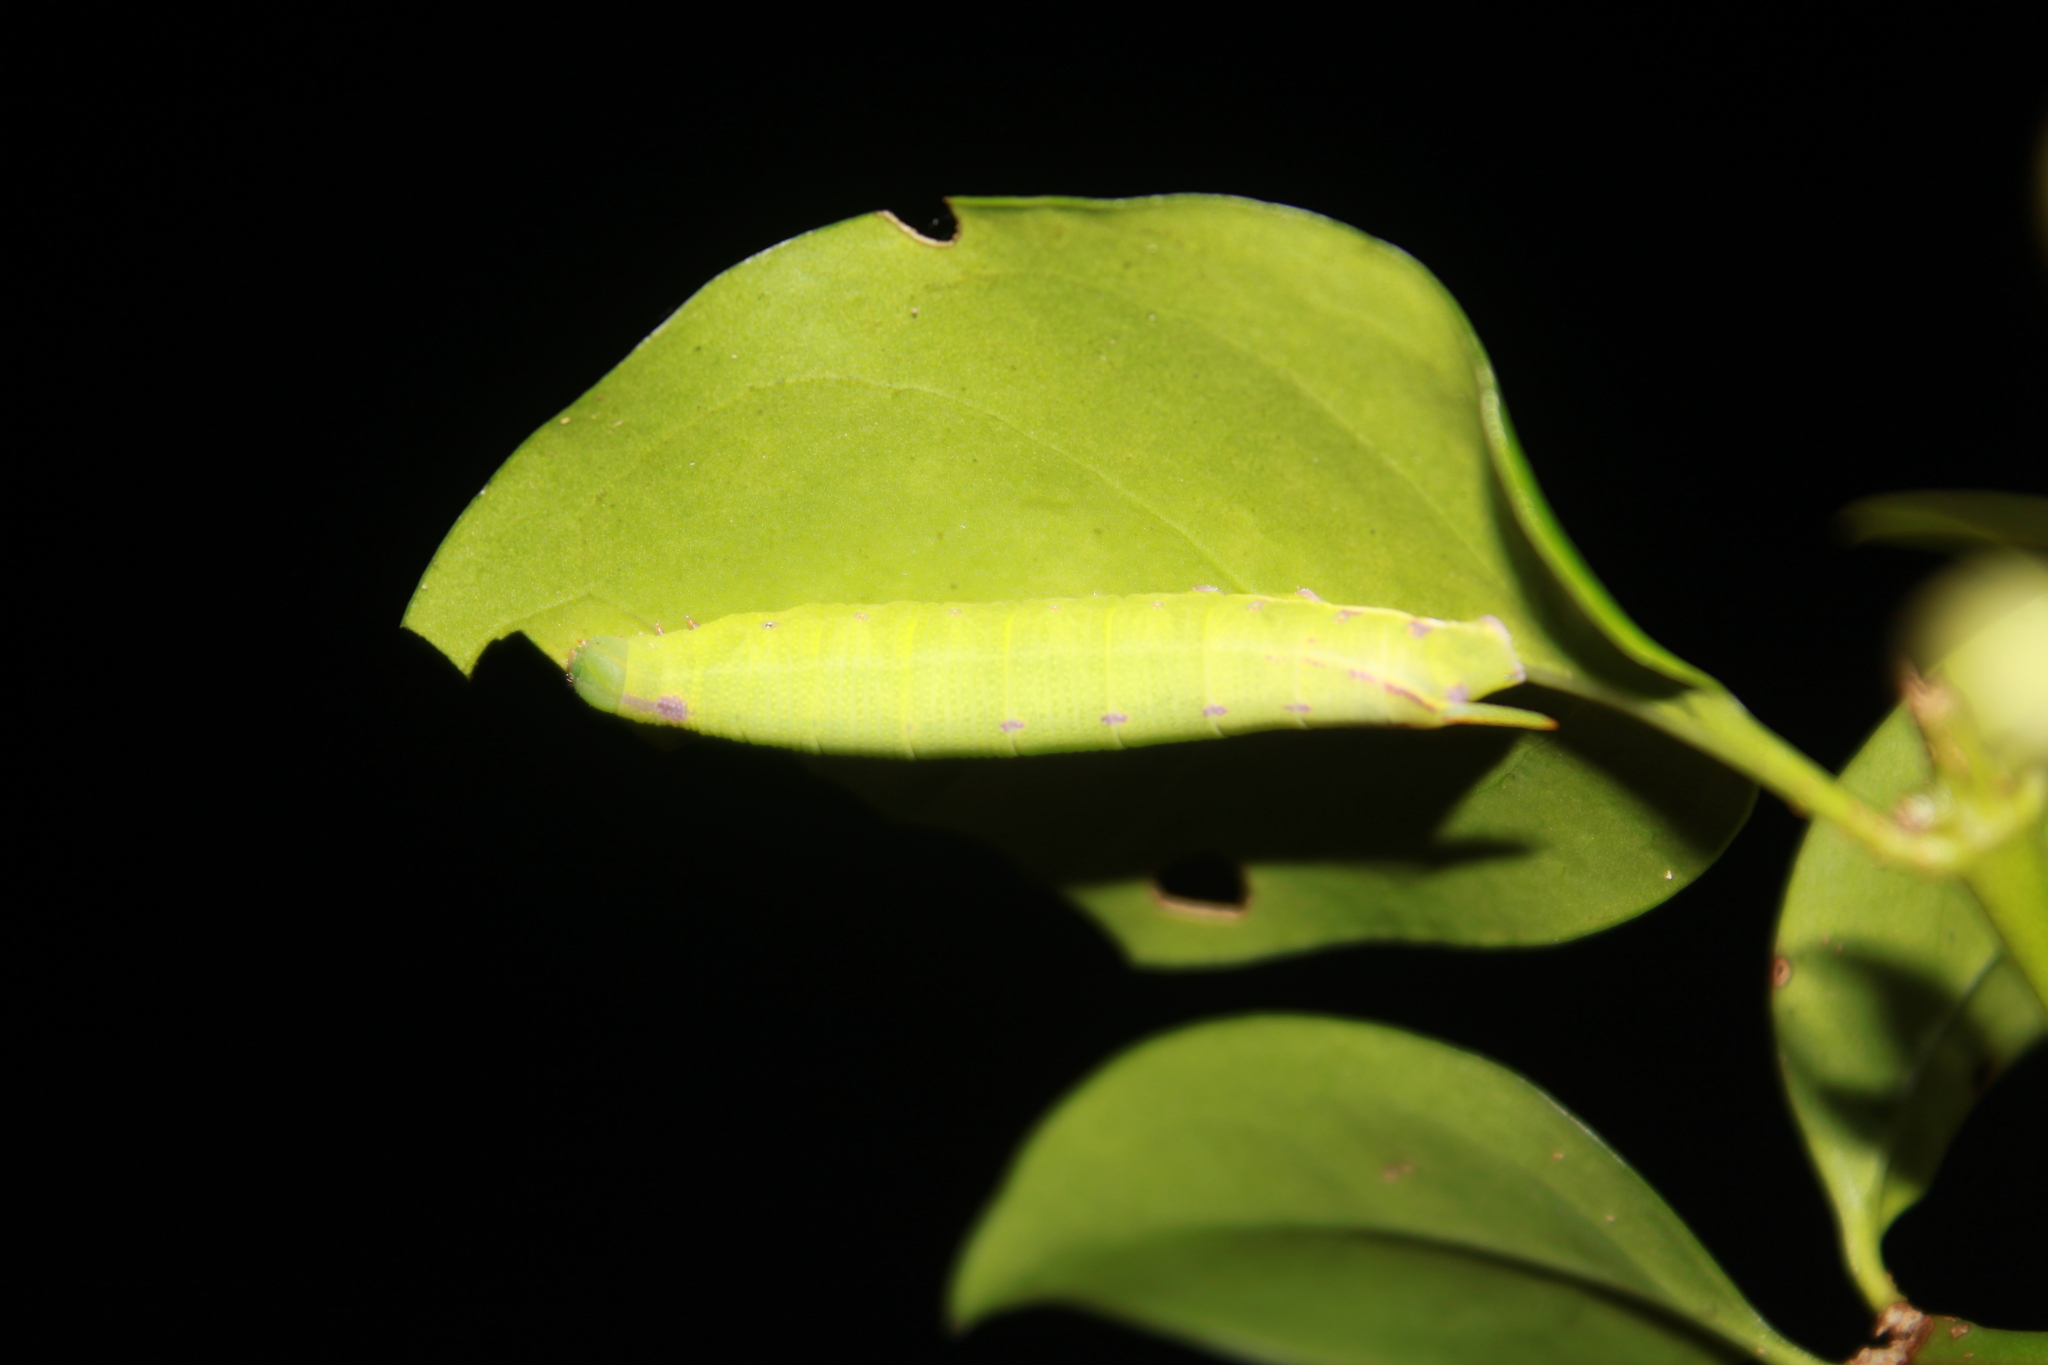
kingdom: Animalia
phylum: Arthropoda
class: Insecta
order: Lepidoptera
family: Sphingidae
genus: Cautethia
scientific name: Cautethia grotei
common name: Grote's sphinx
